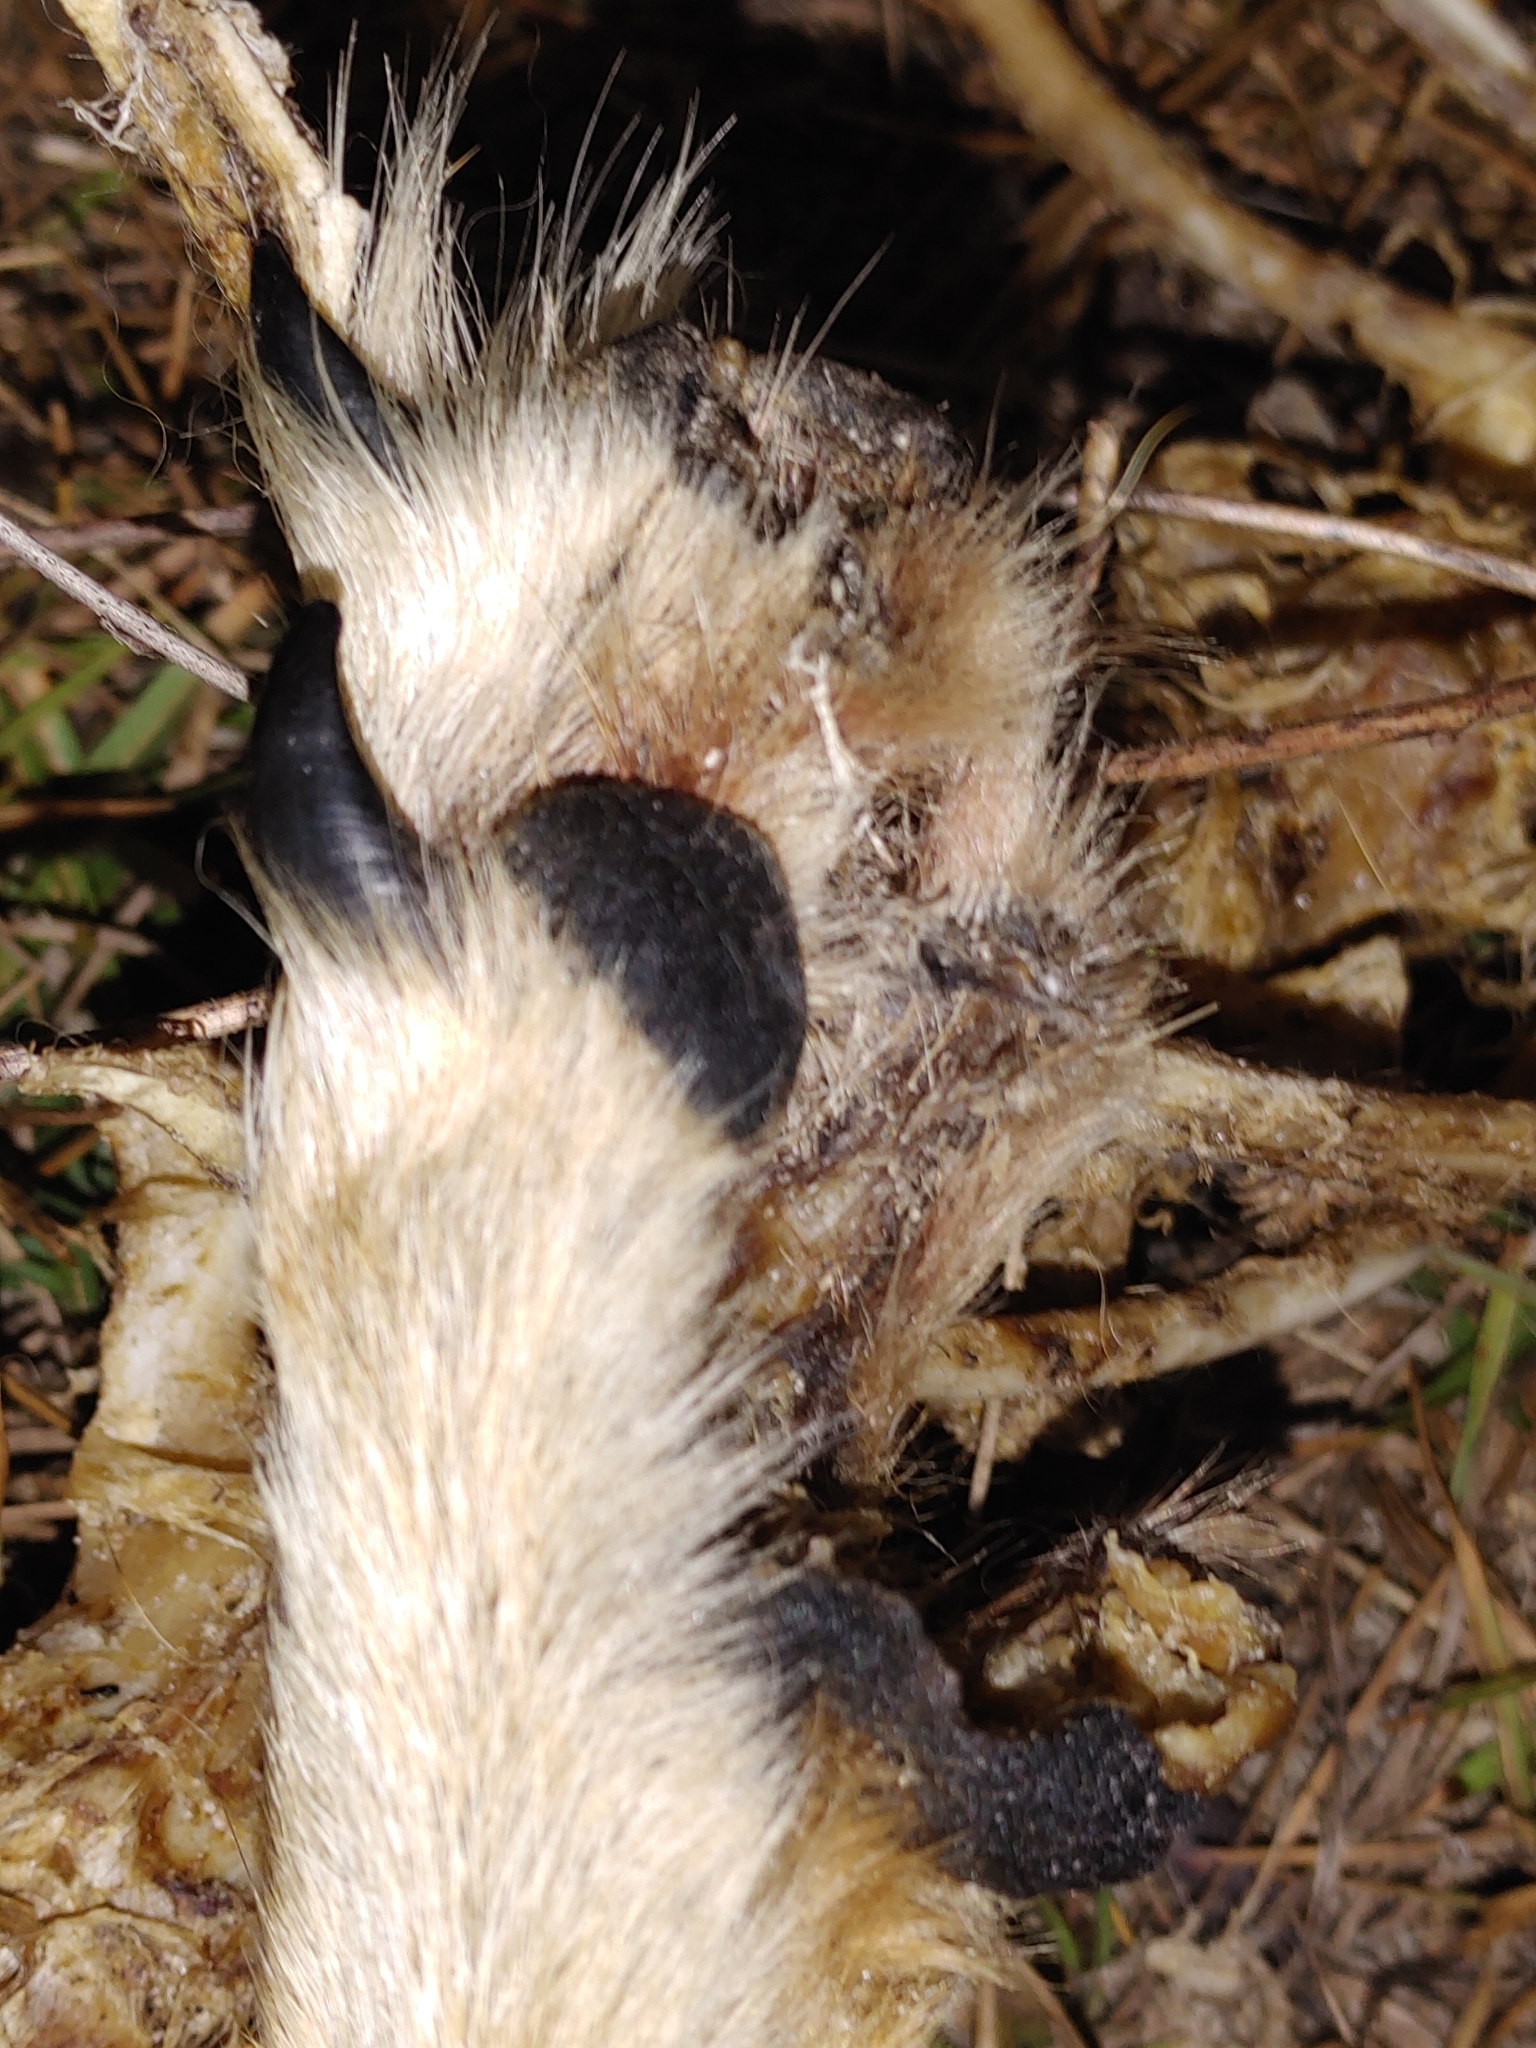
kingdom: Animalia
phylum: Chordata
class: Mammalia
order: Carnivora
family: Canidae
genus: Canis
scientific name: Canis latrans
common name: Coyote
